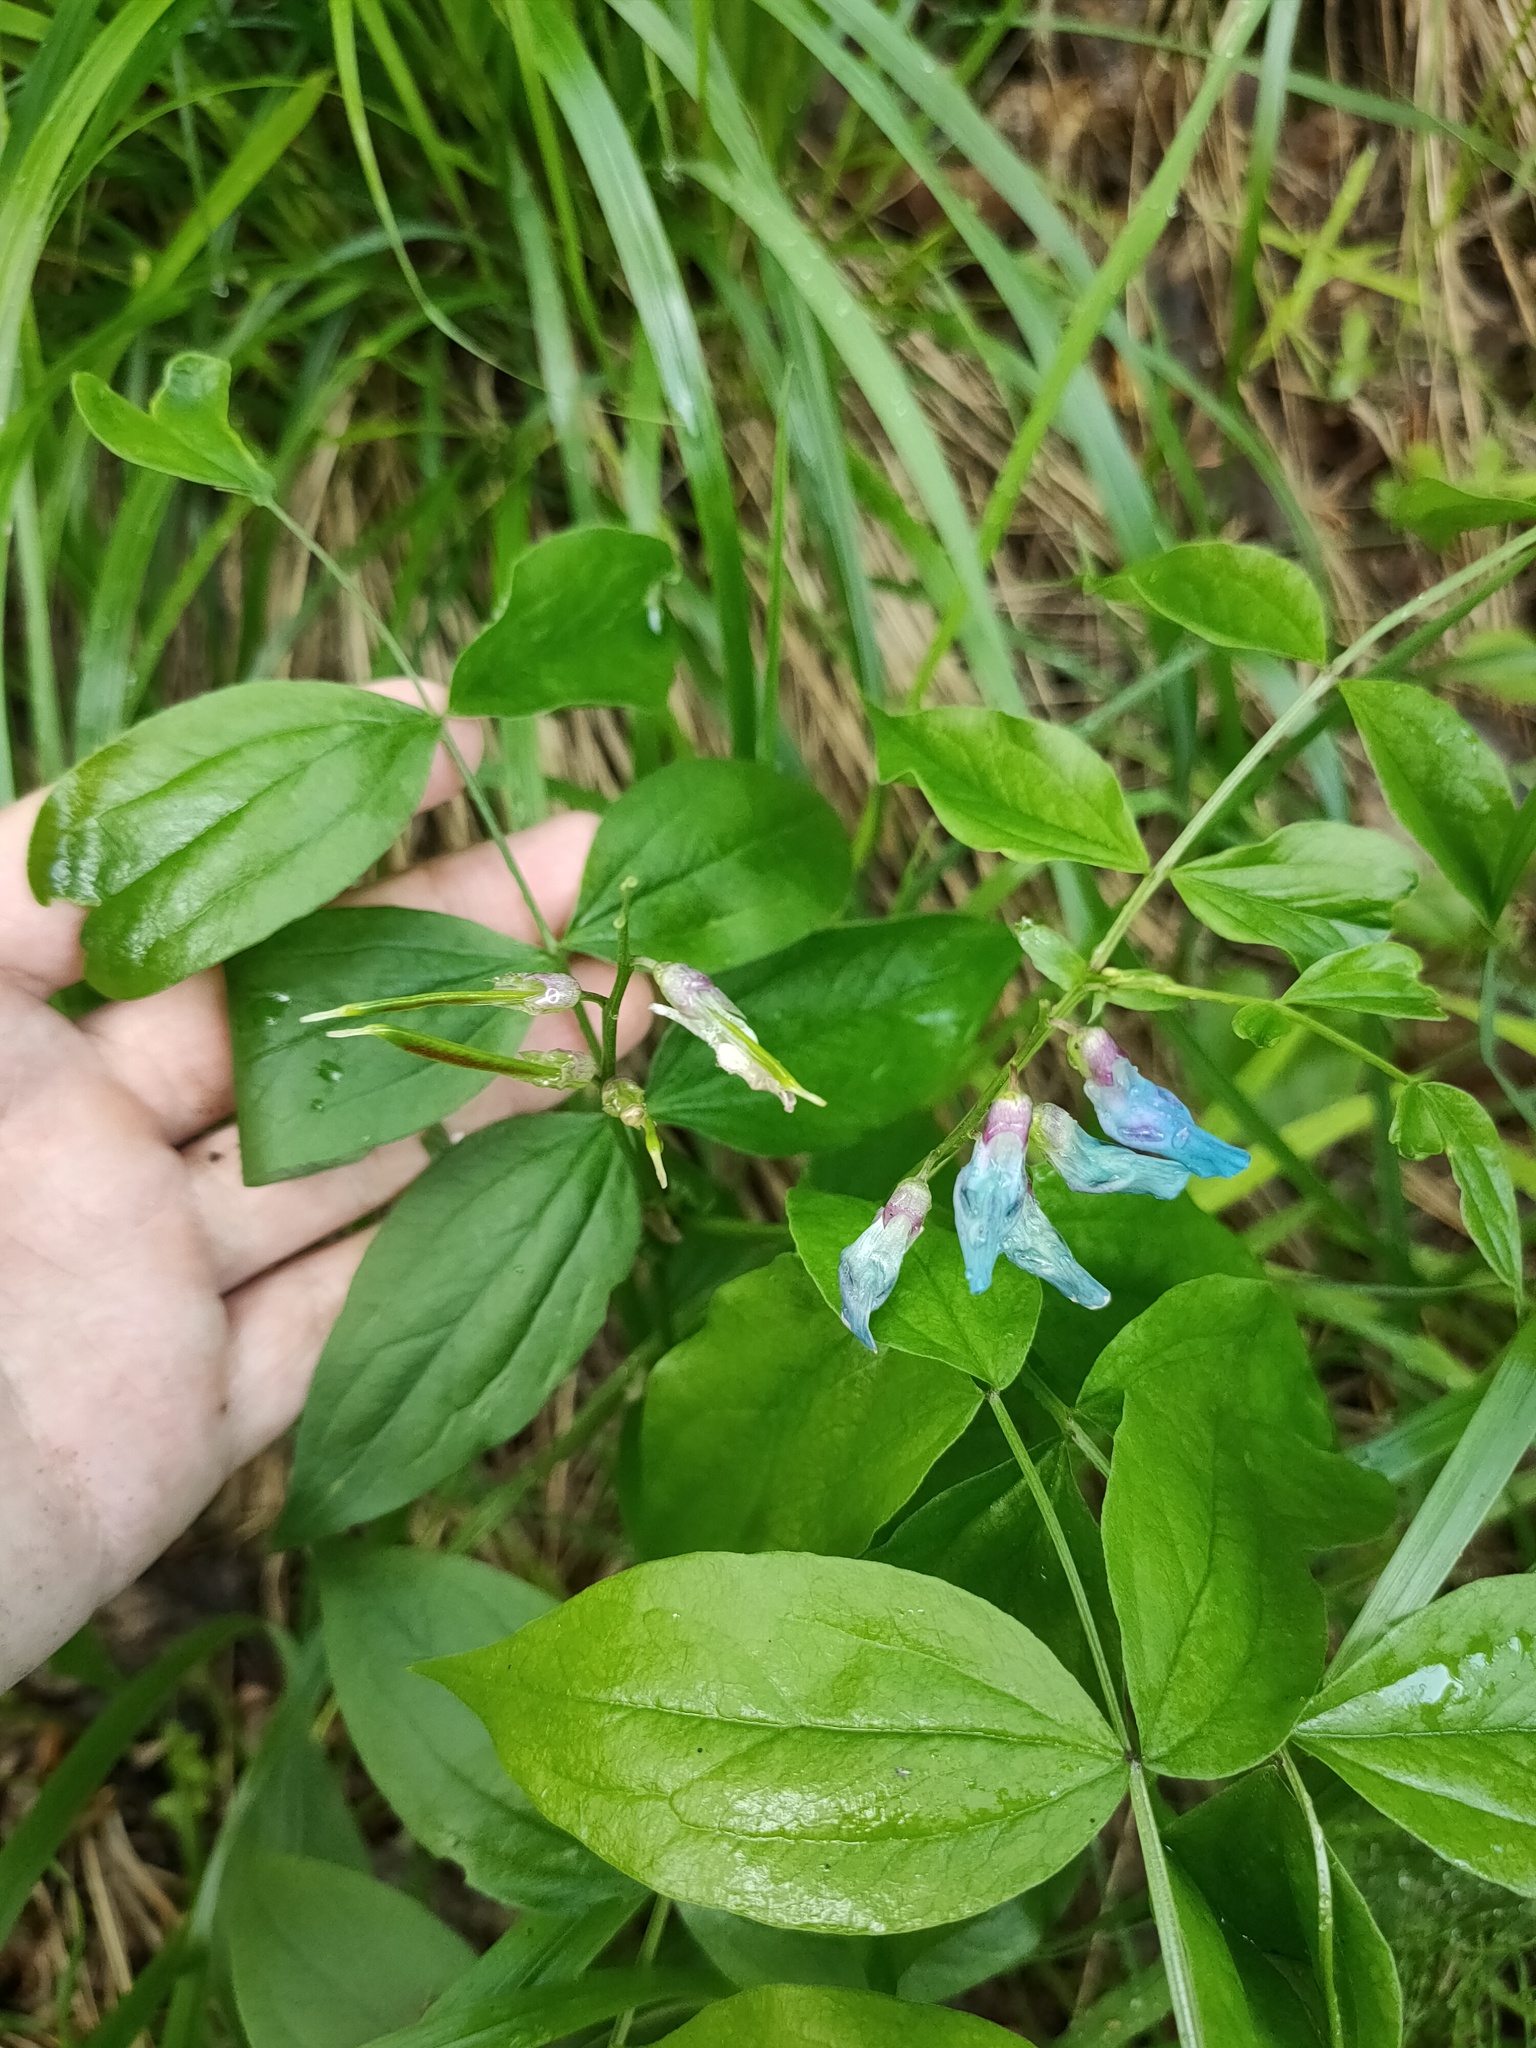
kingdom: Plantae
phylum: Tracheophyta
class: Magnoliopsida
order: Fabales
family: Fabaceae
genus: Lathyrus
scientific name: Lathyrus vernus
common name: Spring pea
